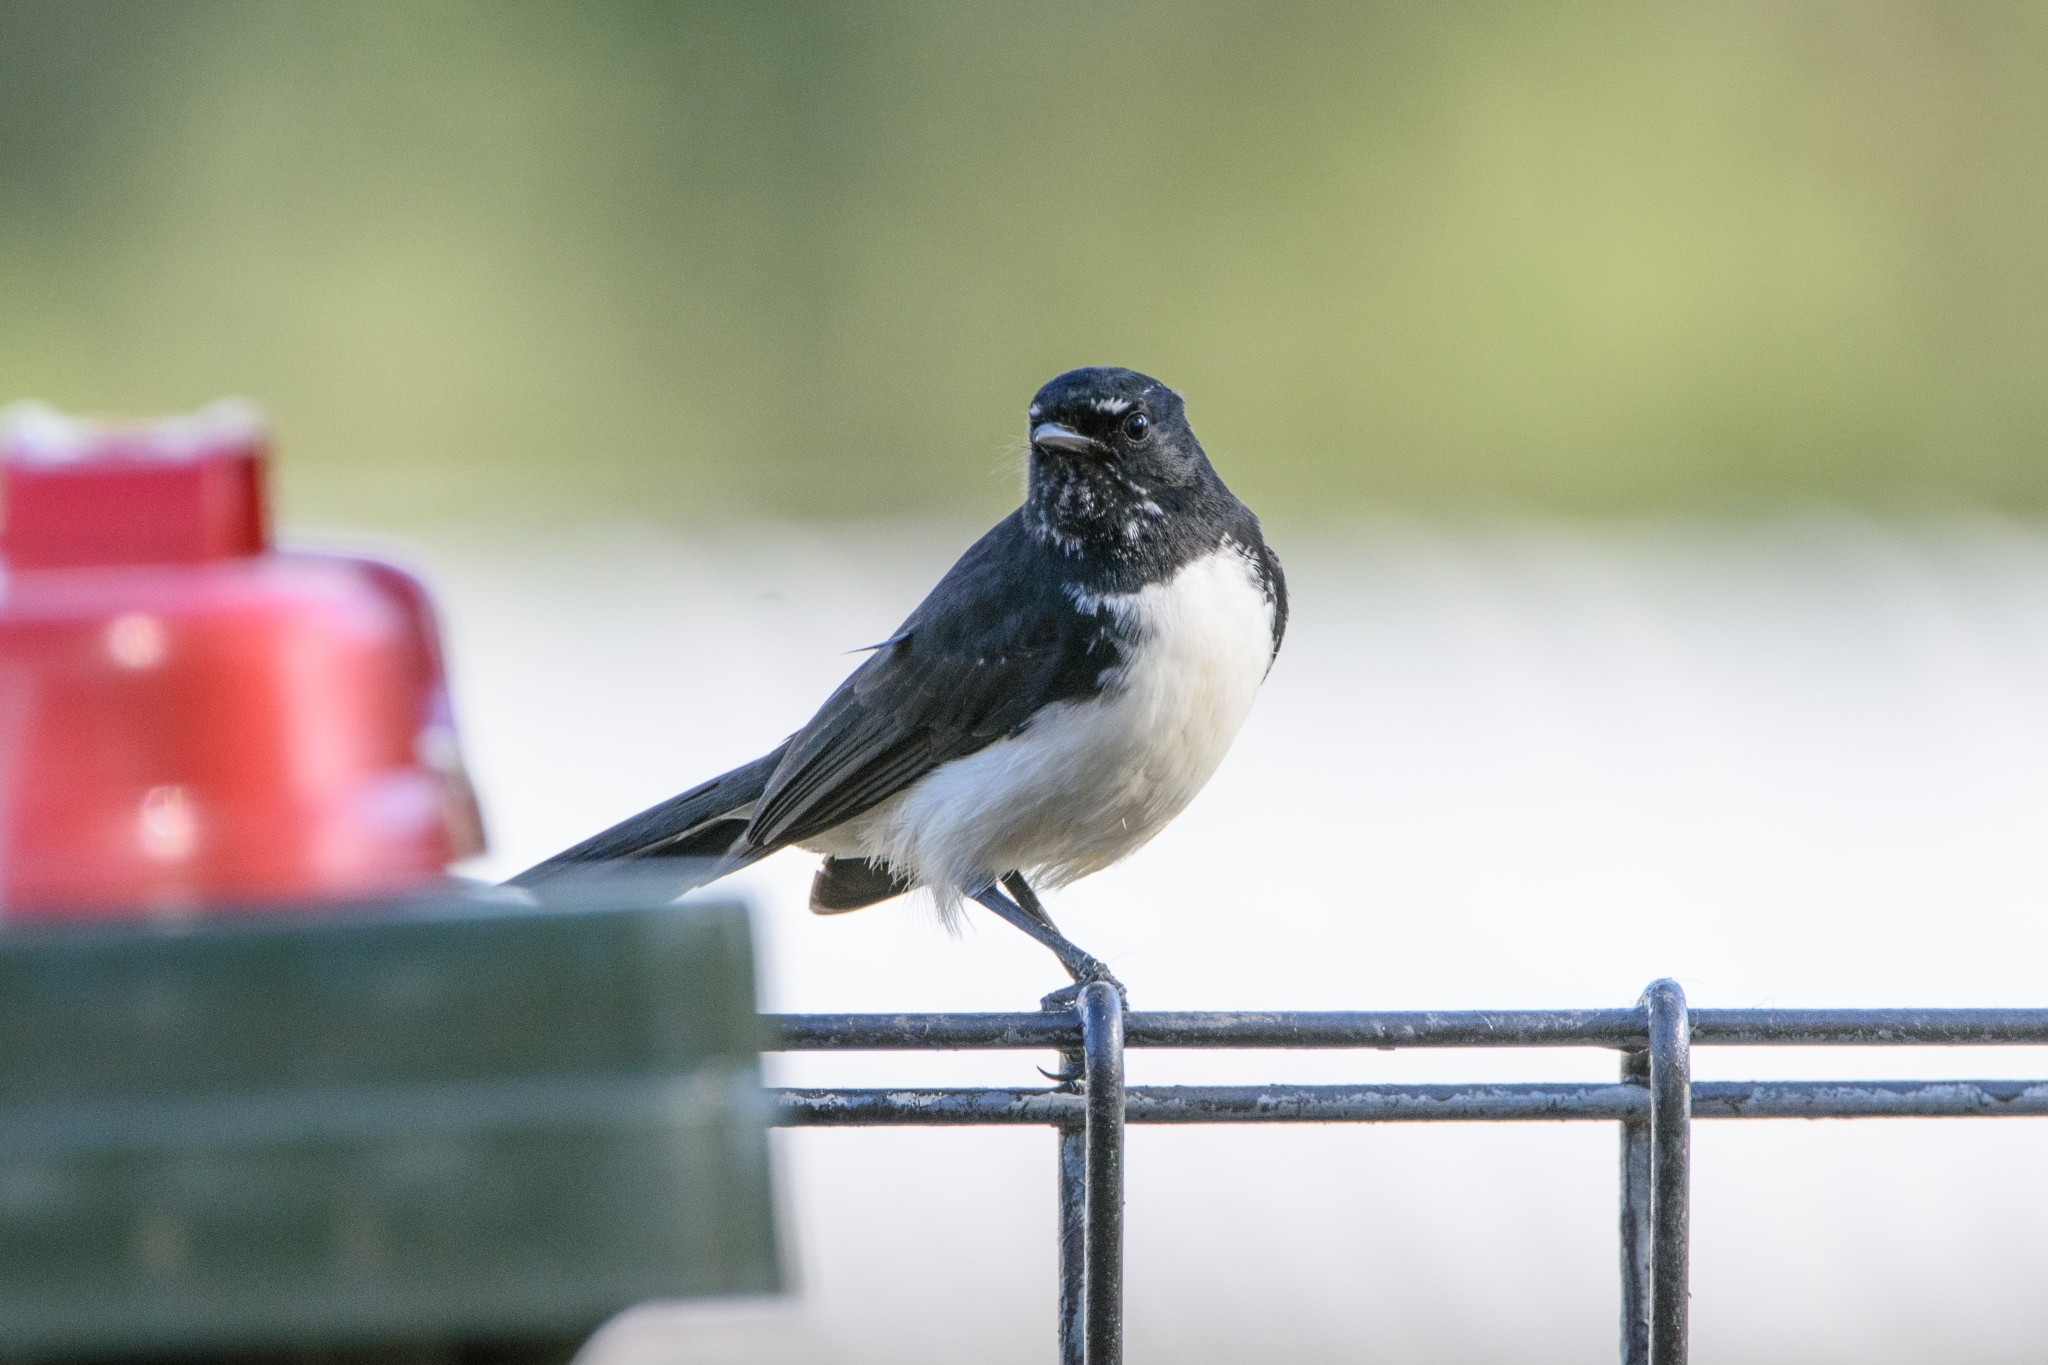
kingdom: Animalia
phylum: Chordata
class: Aves
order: Passeriformes
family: Rhipiduridae
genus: Rhipidura
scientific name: Rhipidura leucophrys
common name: Willie wagtail
